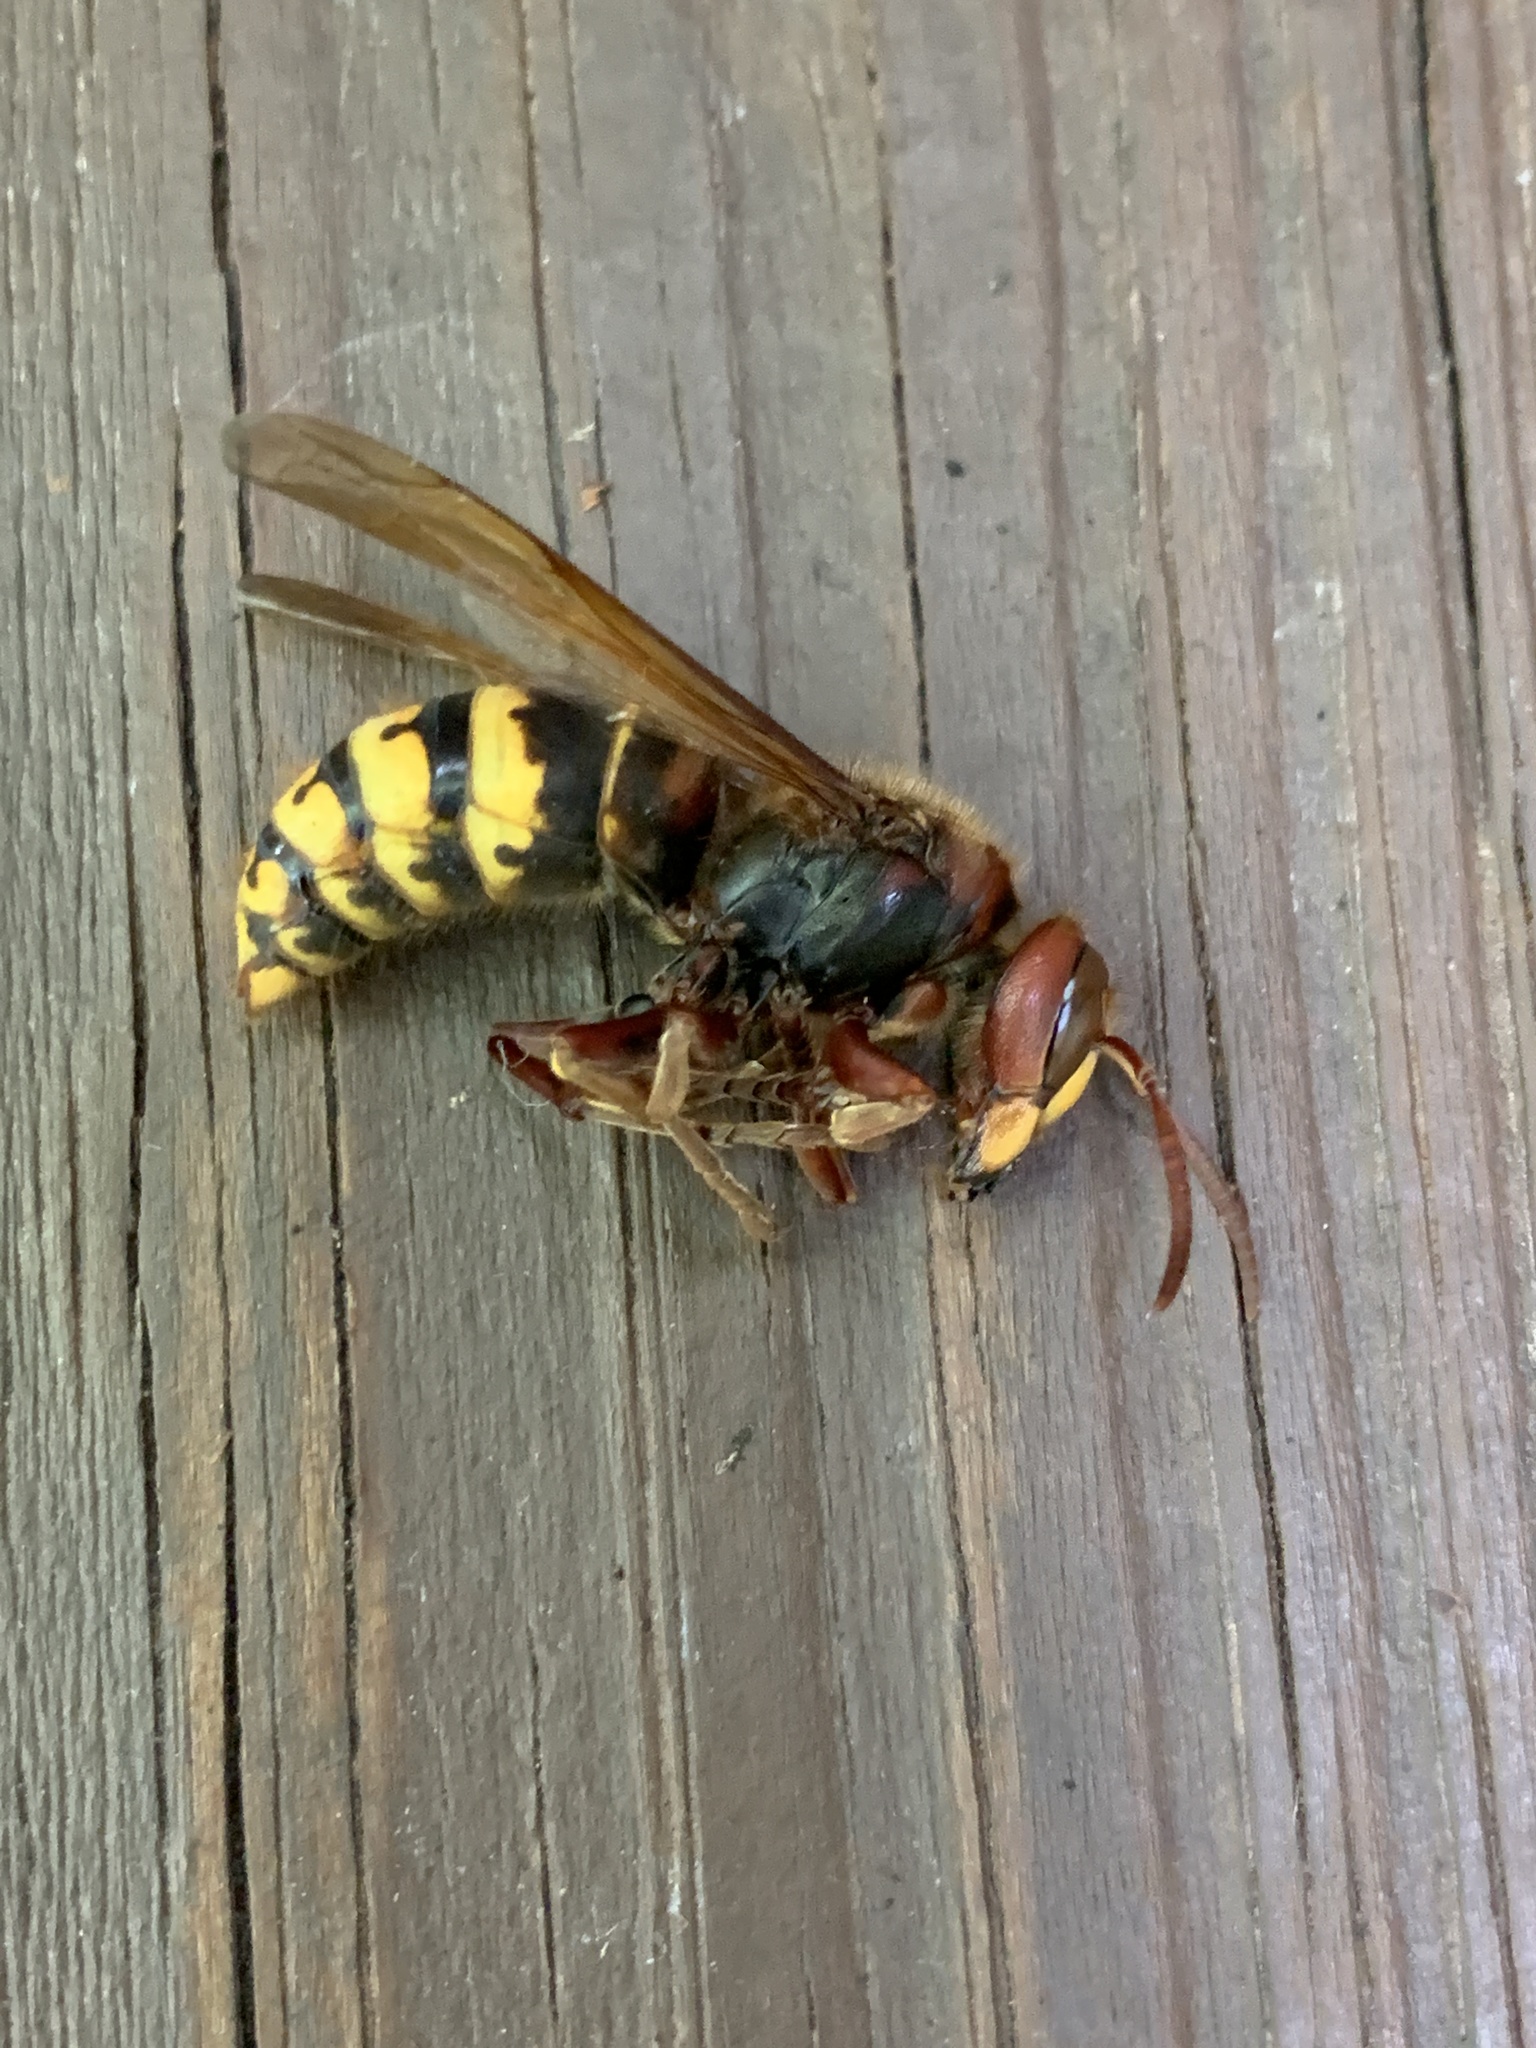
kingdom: Animalia
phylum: Arthropoda
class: Insecta
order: Hymenoptera
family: Vespidae
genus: Vespa
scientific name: Vespa crabro
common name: Hornet
